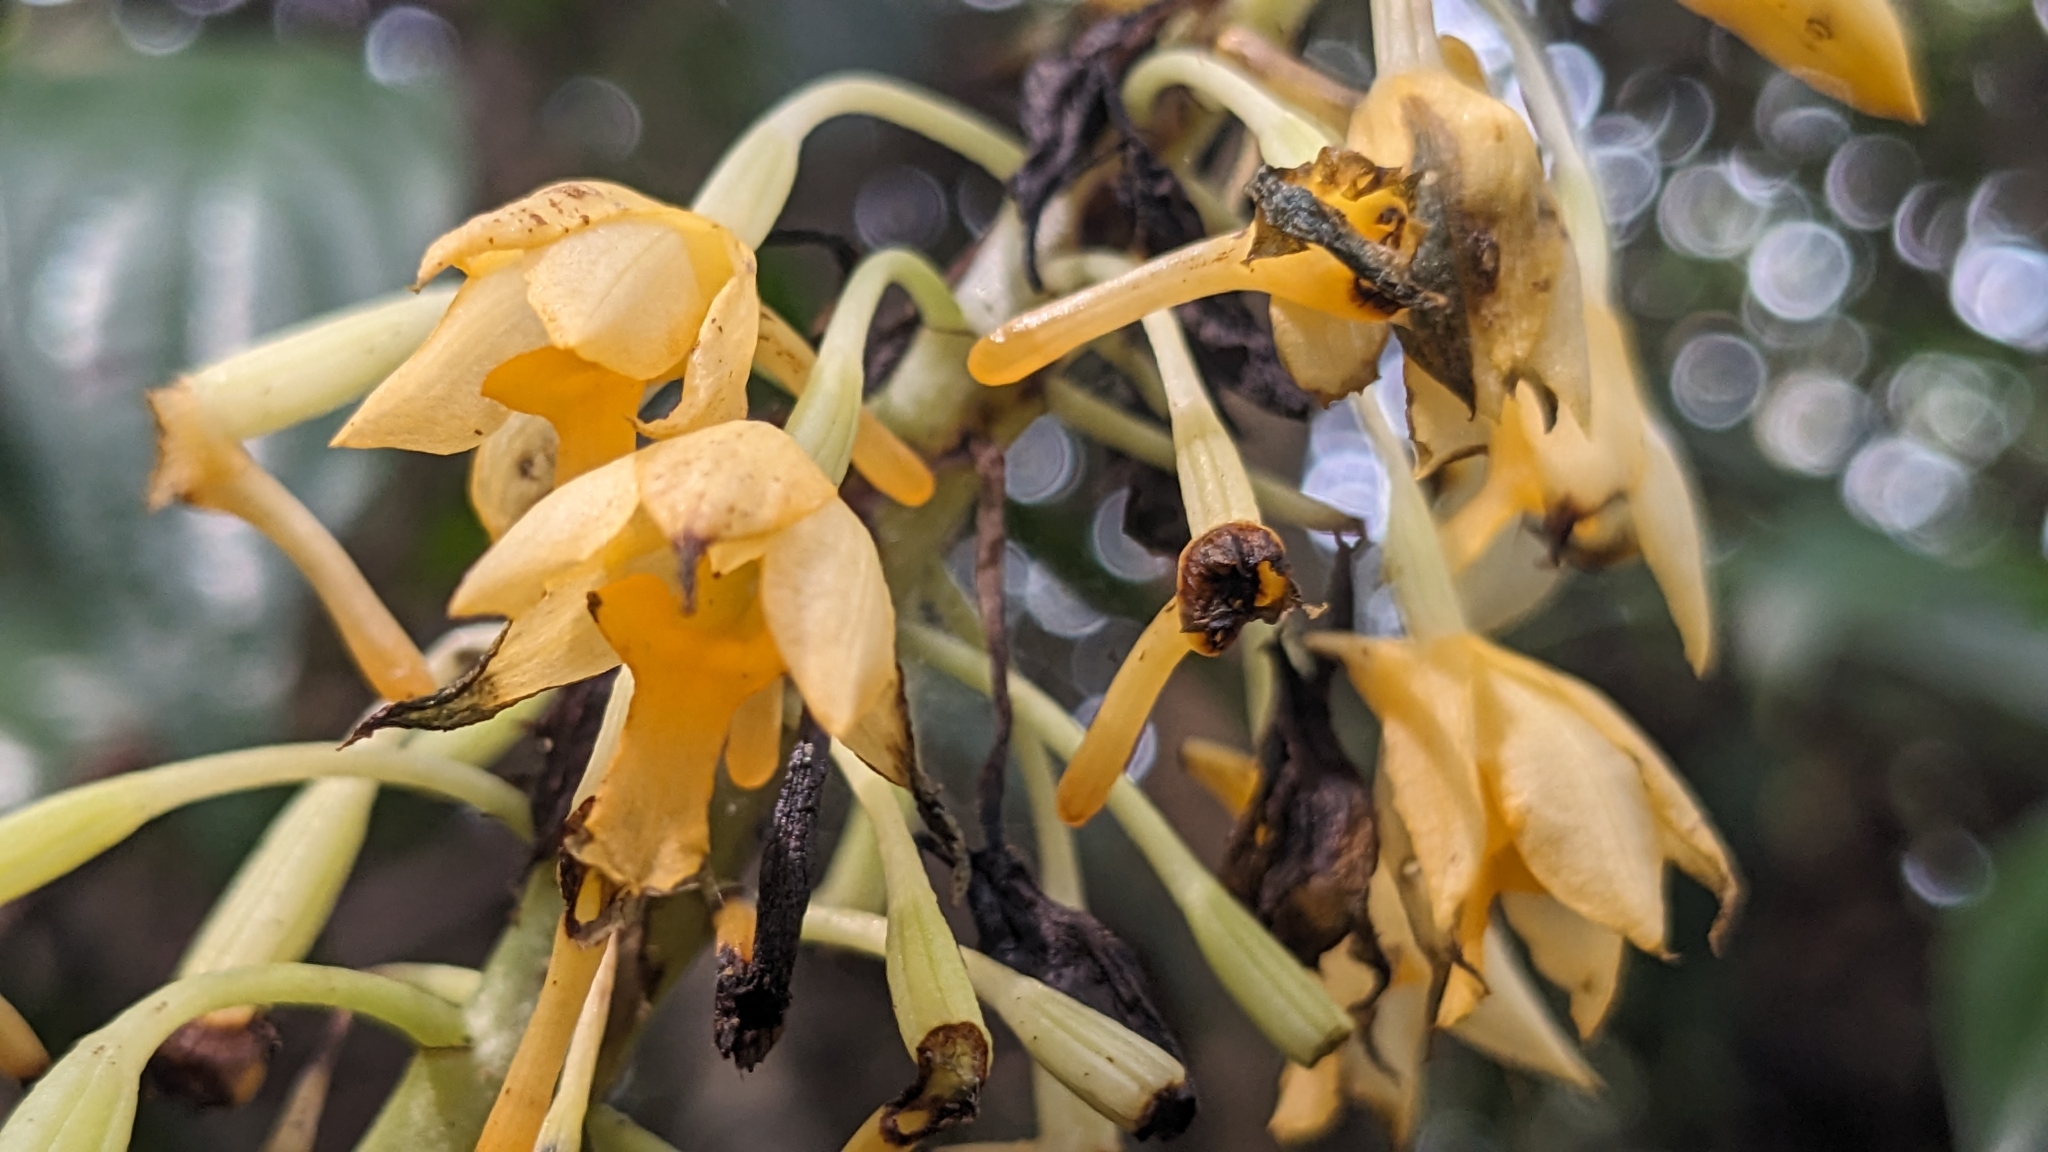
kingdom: Plantae
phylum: Tracheophyta
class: Liliopsida
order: Asparagales
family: Orchidaceae
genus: Calanthe
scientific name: Calanthe formosana
